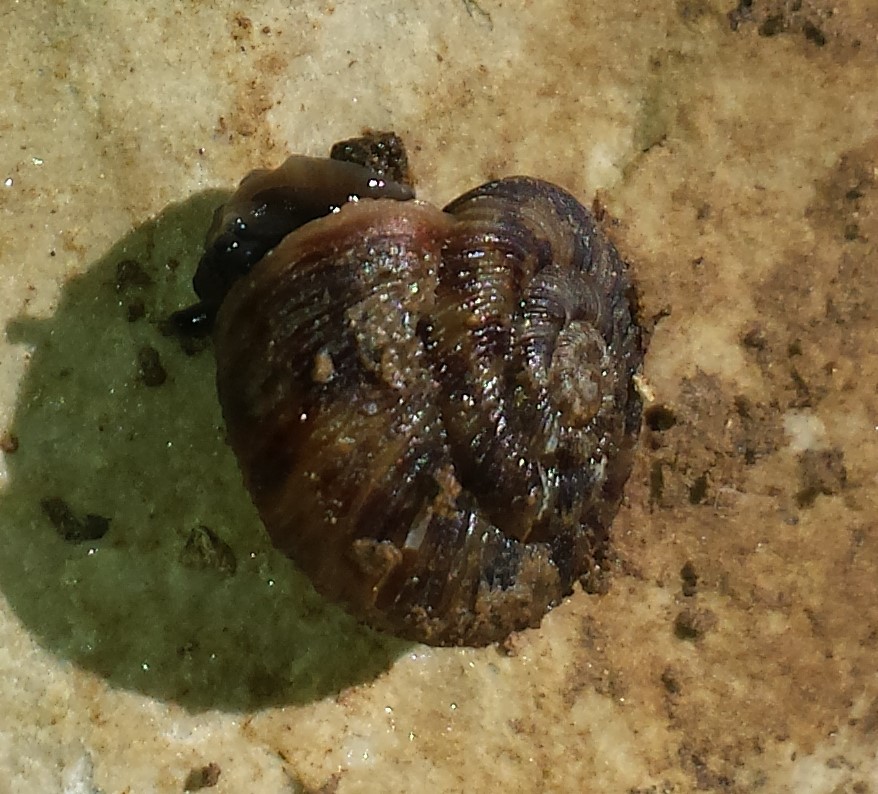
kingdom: Animalia
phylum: Mollusca
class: Gastropoda
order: Stylommatophora
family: Discidae
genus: Anguispira
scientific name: Anguispira alternata
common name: Flamed tigersnail
